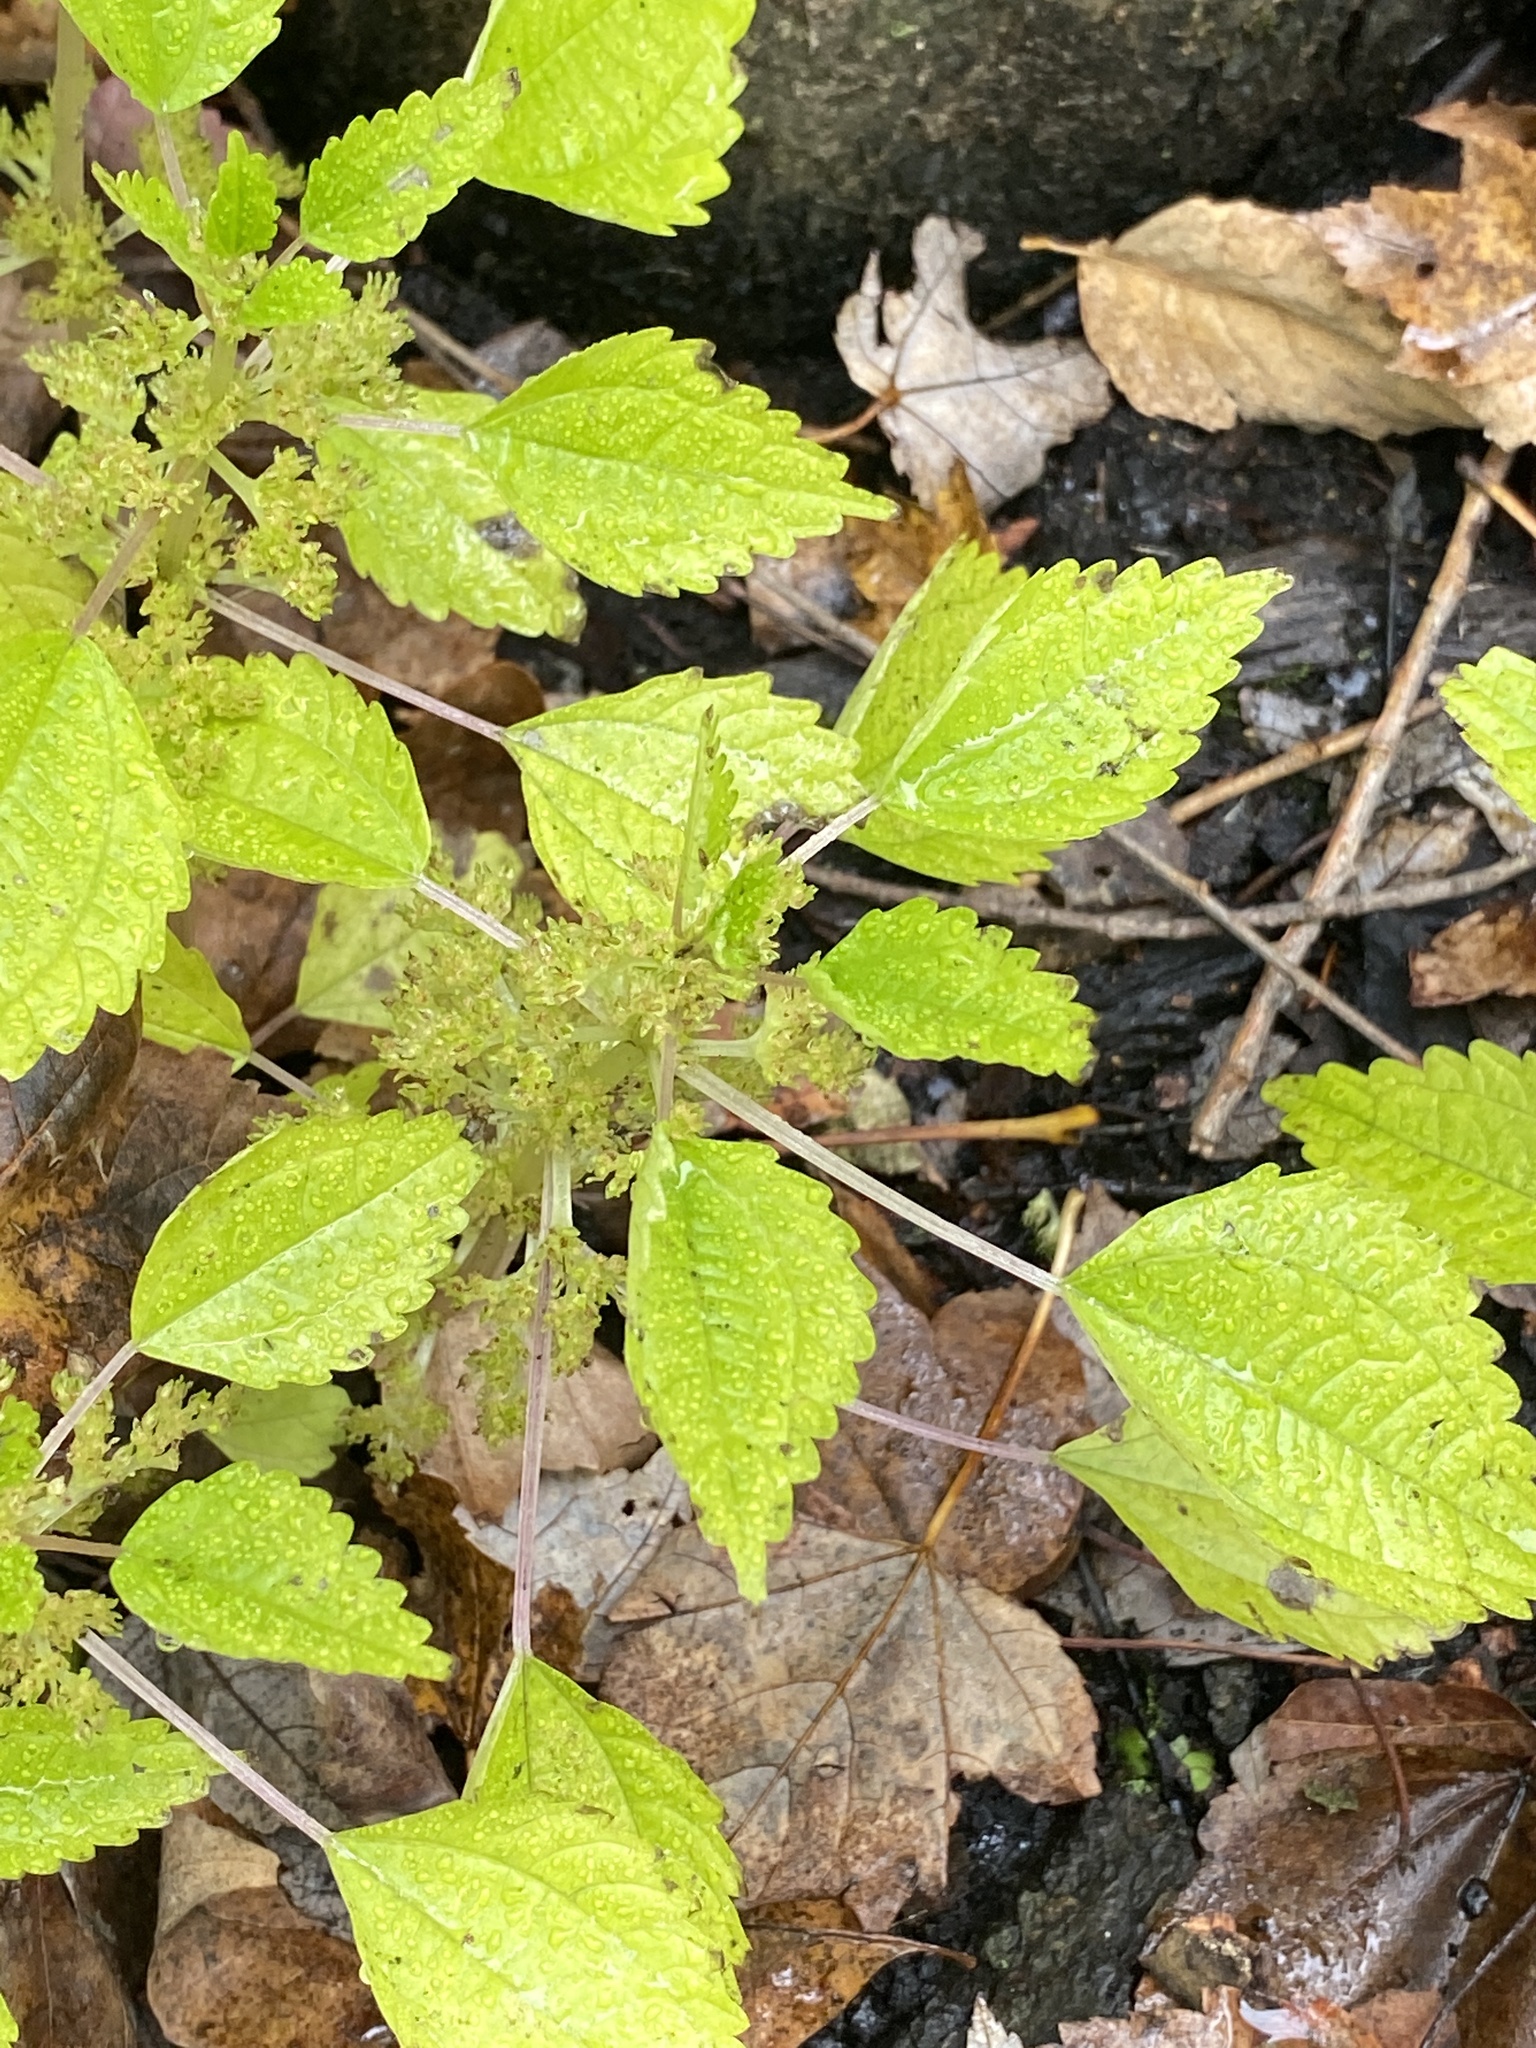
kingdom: Plantae
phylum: Tracheophyta
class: Magnoliopsida
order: Rosales
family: Urticaceae
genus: Pilea
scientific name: Pilea pumila
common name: Clearweed
